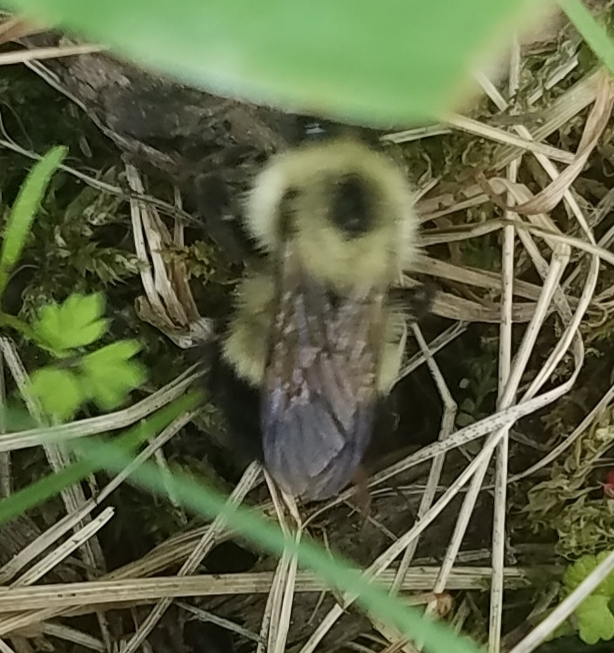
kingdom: Animalia
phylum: Arthropoda
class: Insecta
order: Hymenoptera
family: Apidae
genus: Bombus
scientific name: Bombus vagans
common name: Half-black bumble bee
